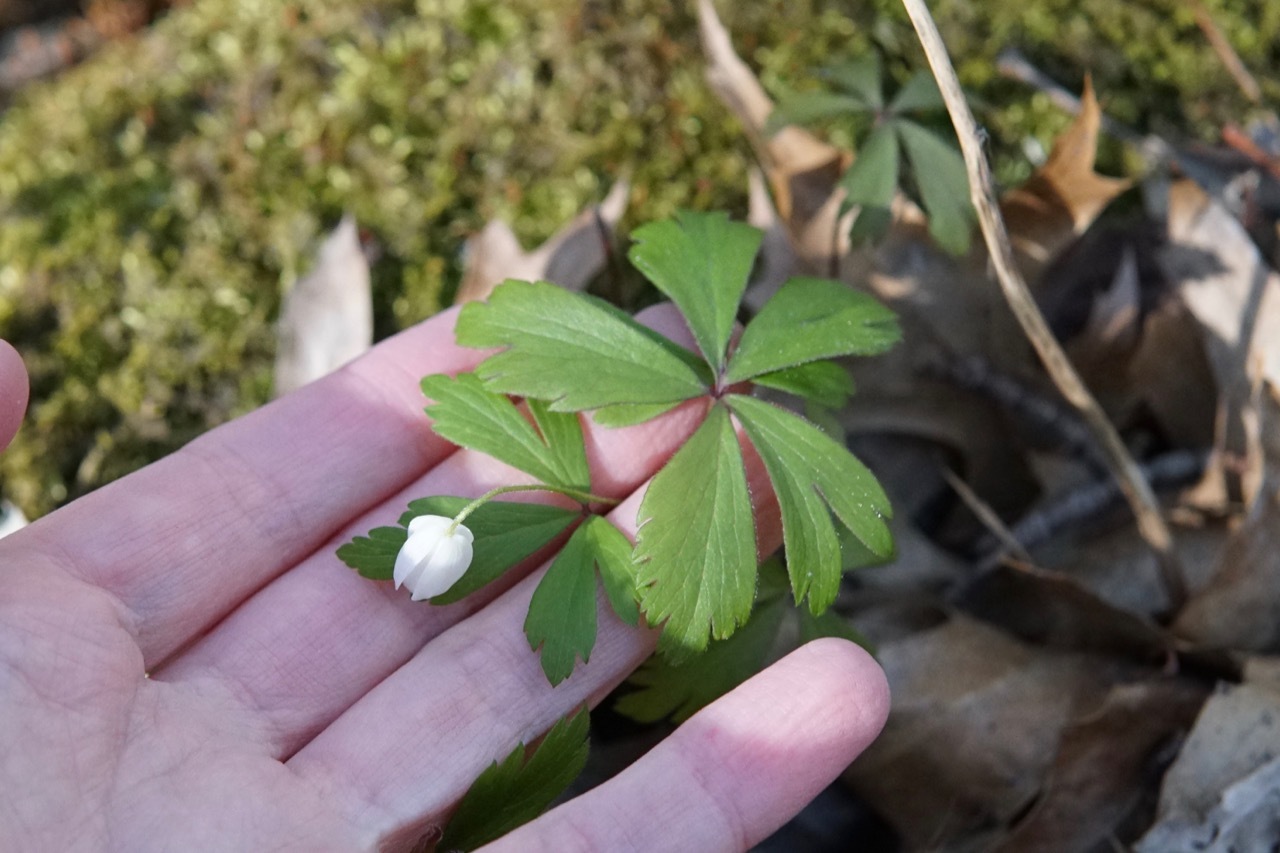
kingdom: Plantae
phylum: Tracheophyta
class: Magnoliopsida
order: Ranunculales
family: Ranunculaceae
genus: Anemone
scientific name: Anemone quinquefolia
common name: Wood anemone
